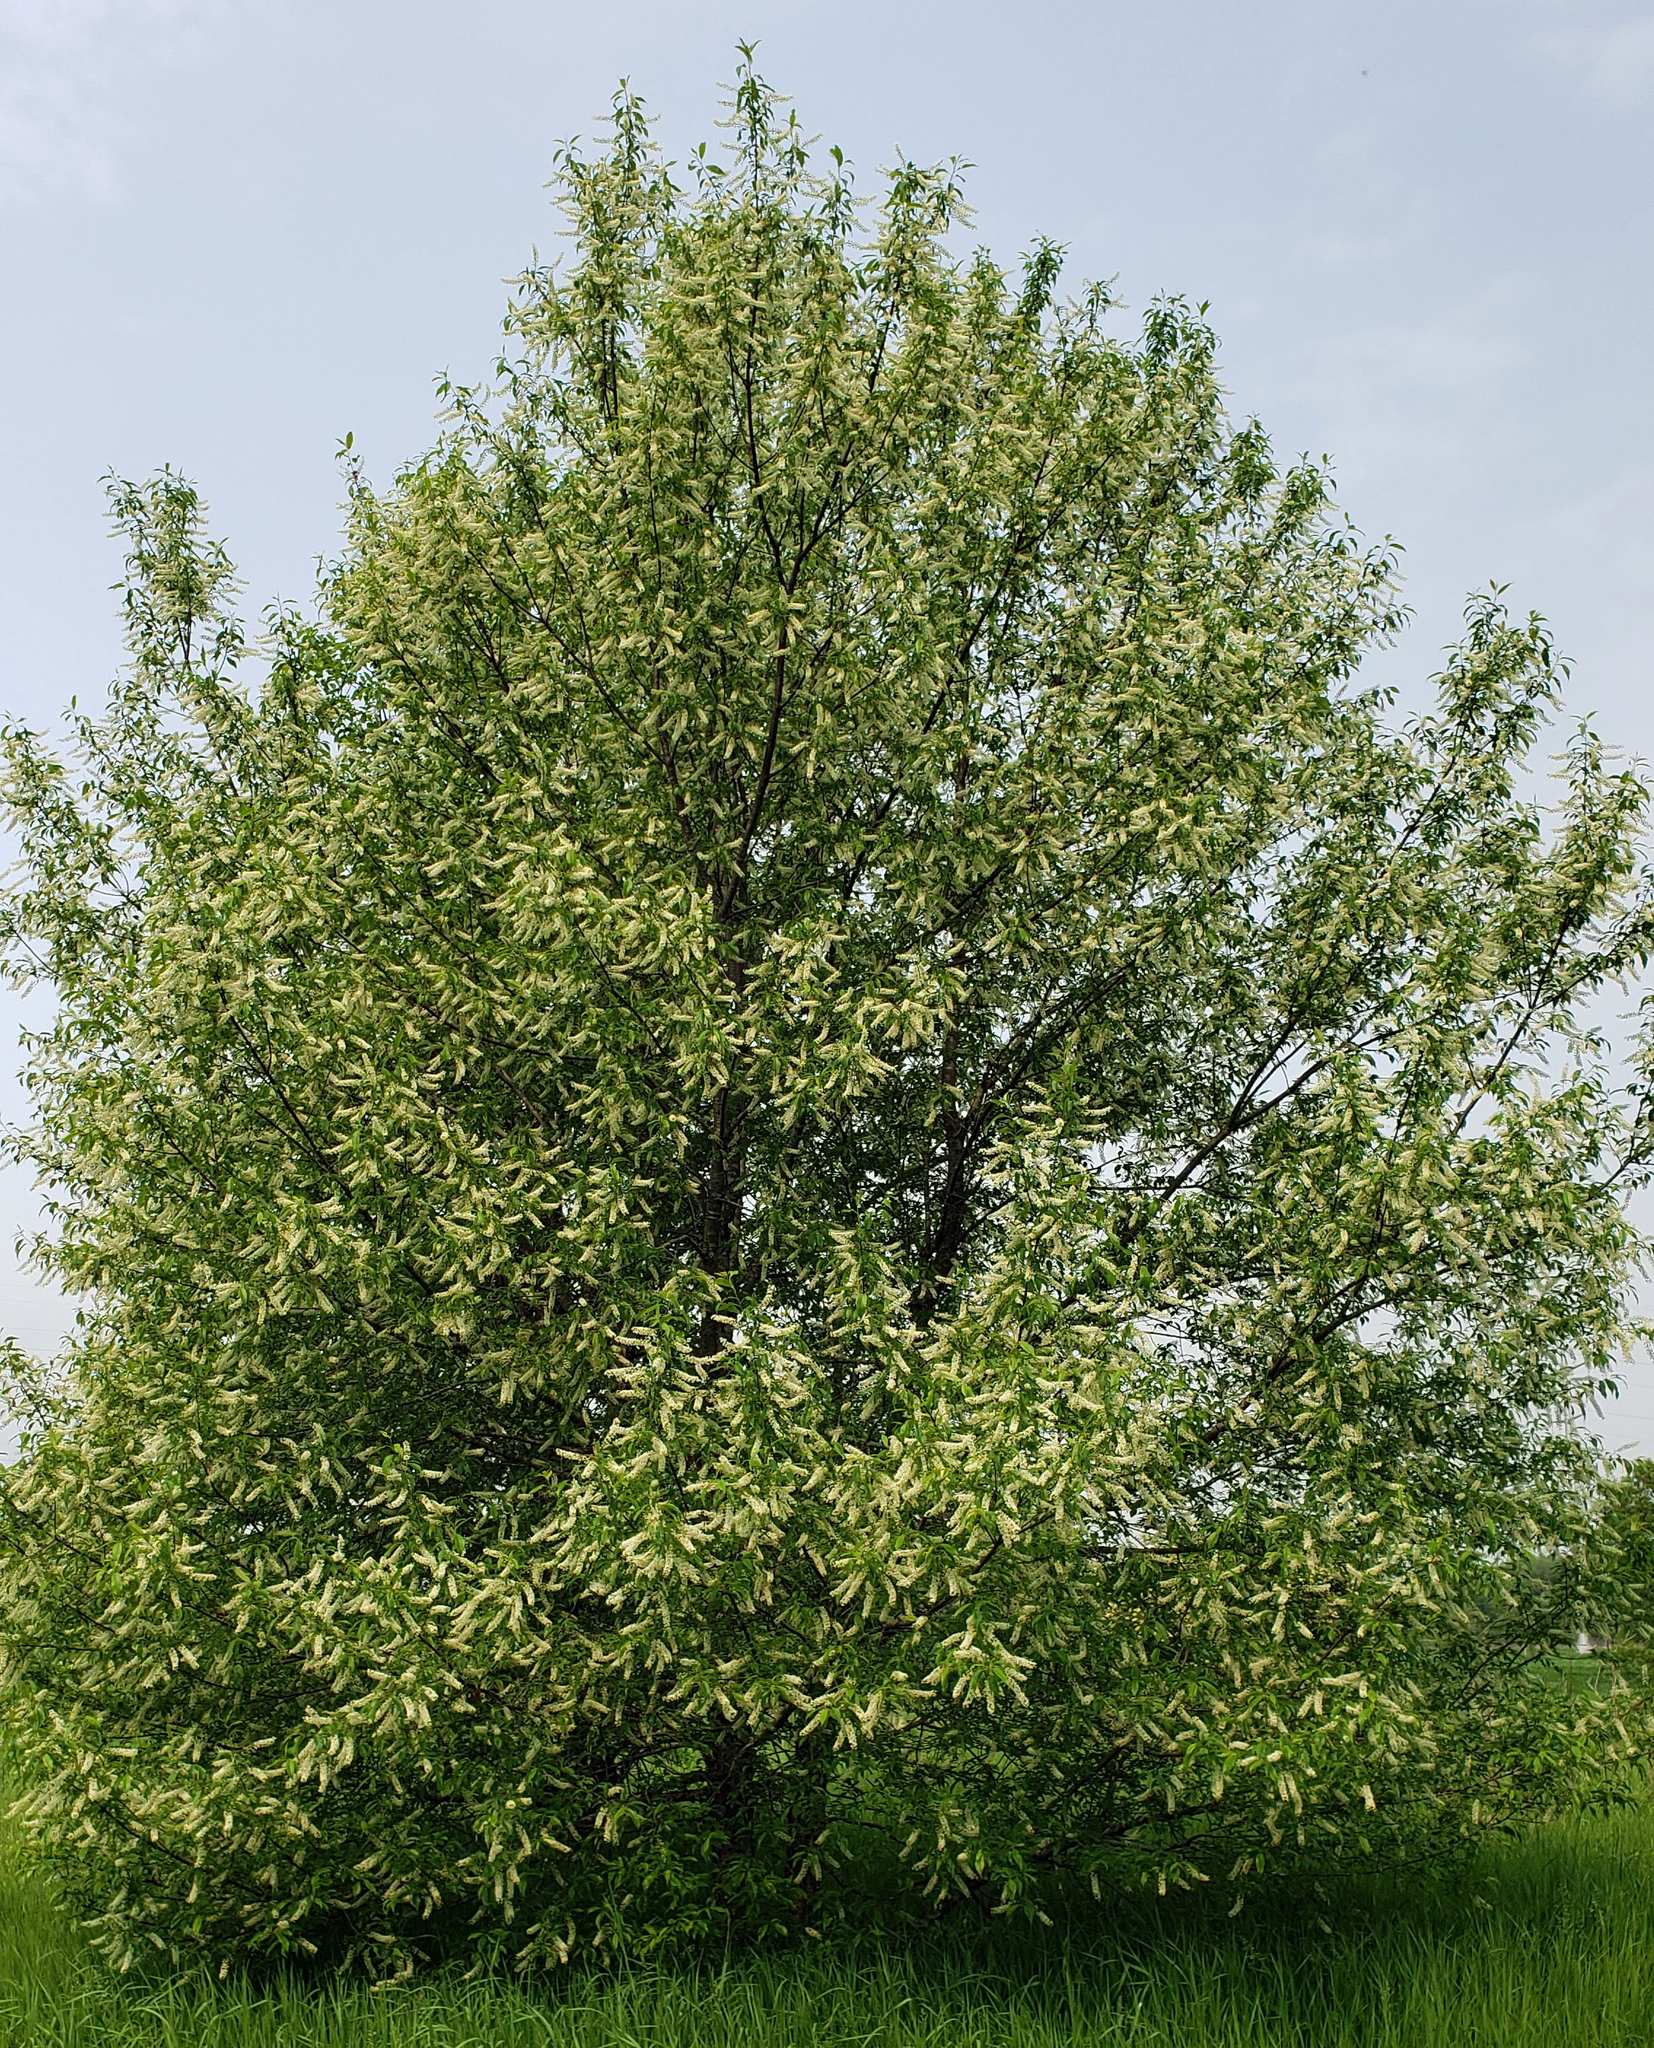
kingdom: Plantae
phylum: Tracheophyta
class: Magnoliopsida
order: Rosales
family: Rosaceae
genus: Prunus
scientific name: Prunus serotina
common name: Black cherry
